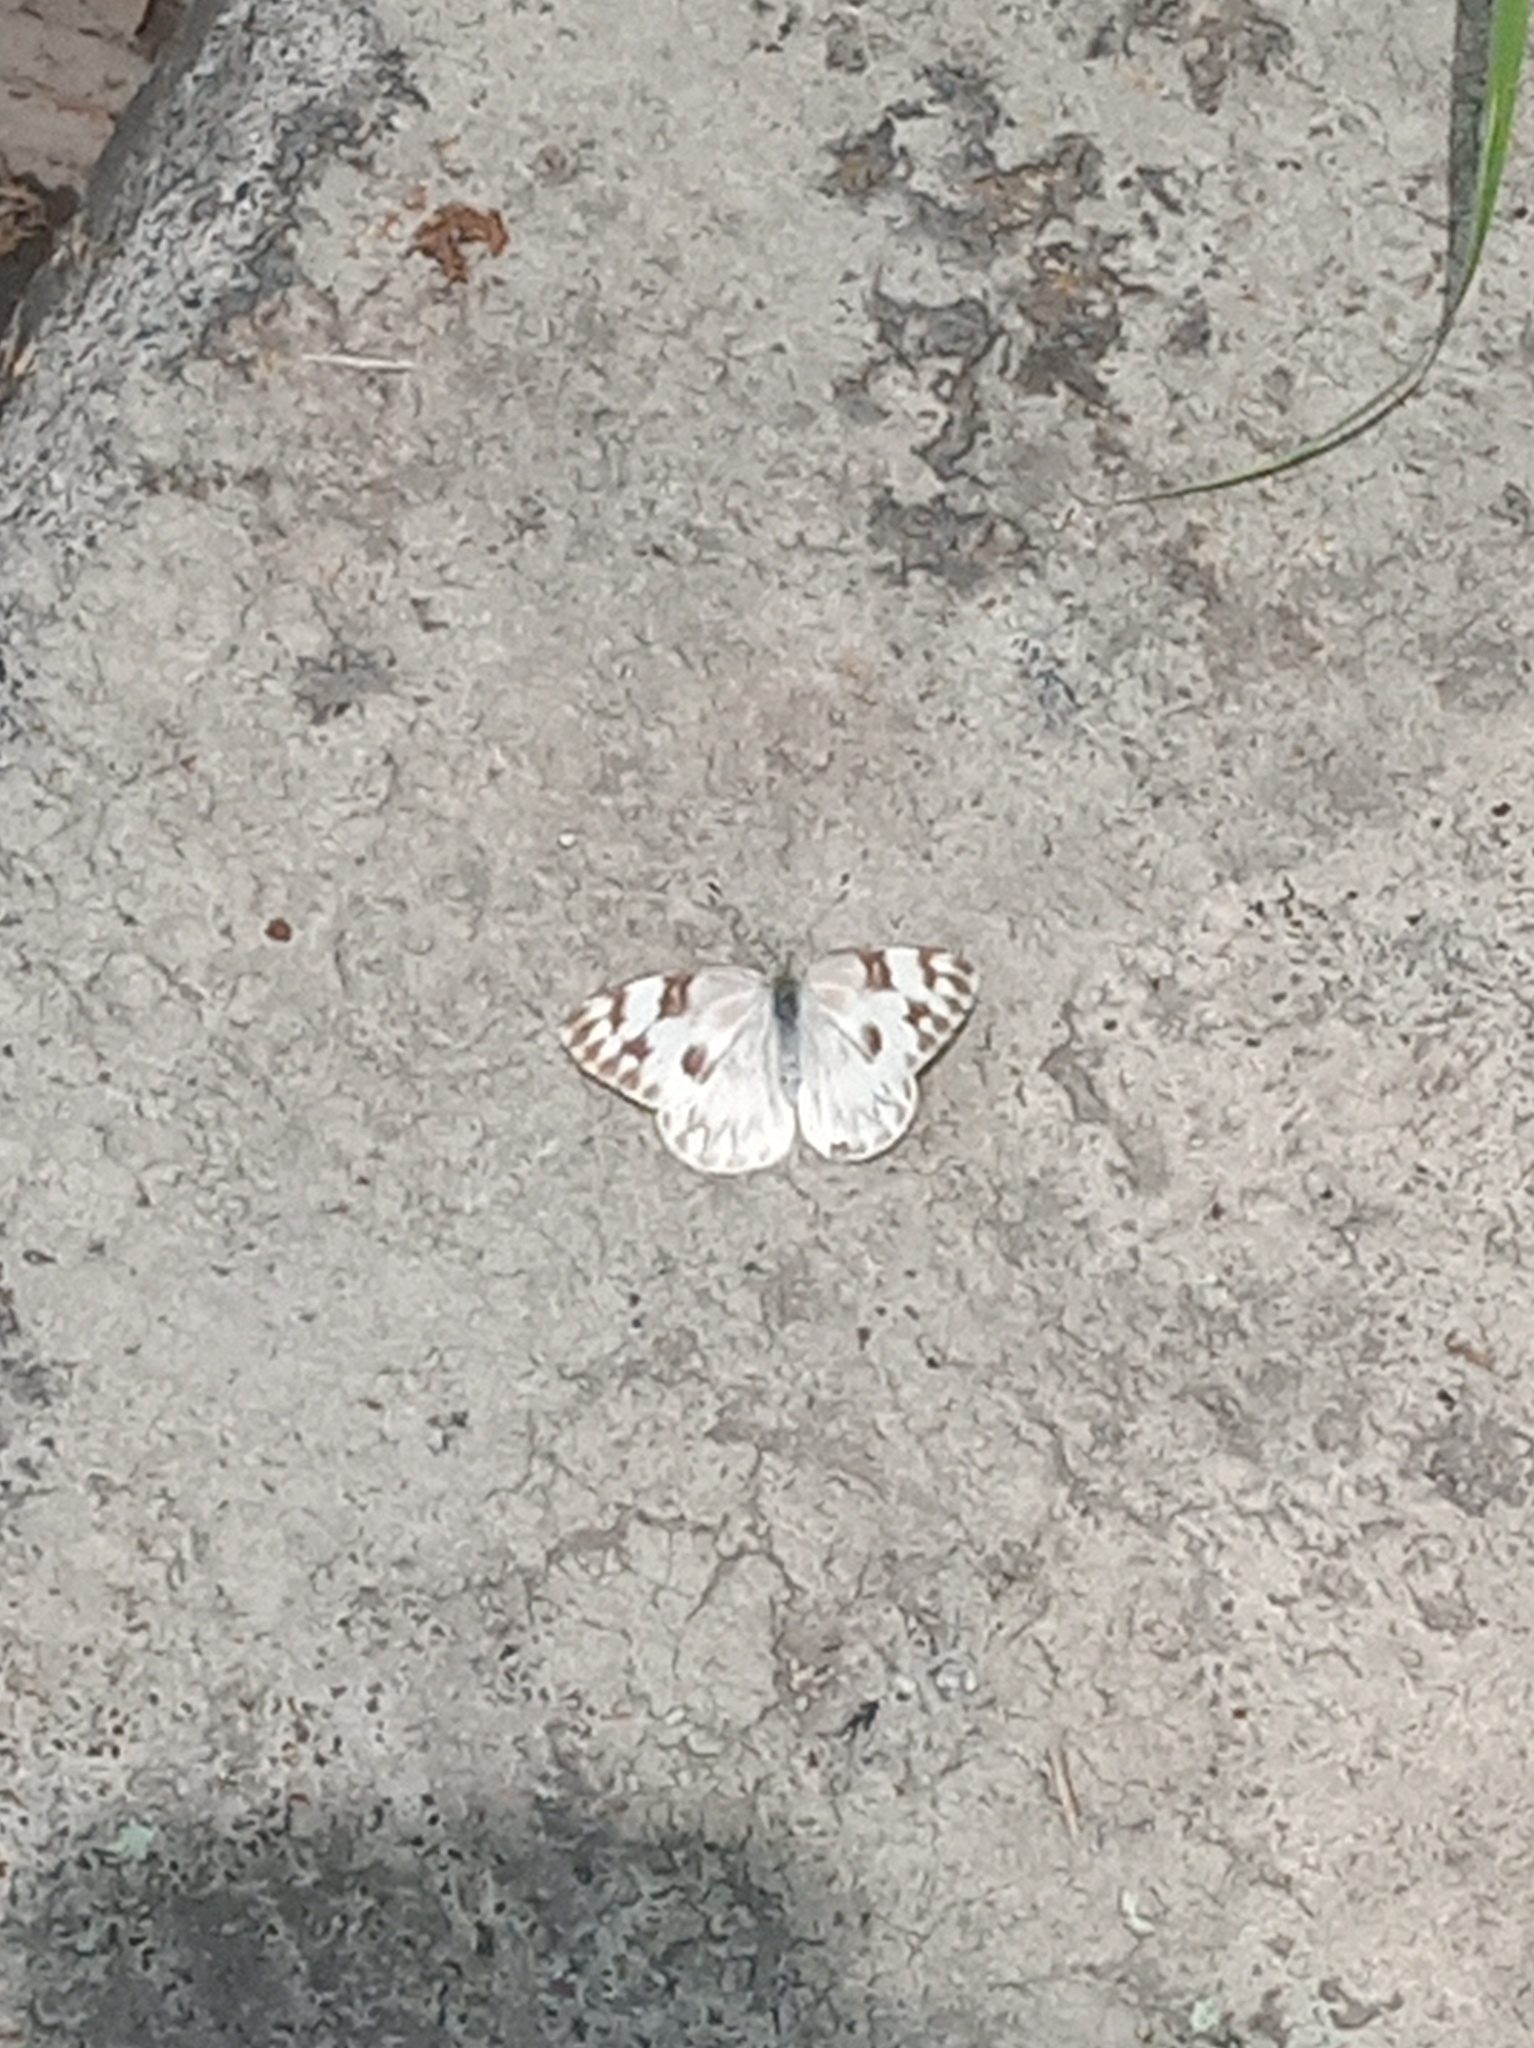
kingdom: Animalia
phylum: Arthropoda
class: Insecta
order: Lepidoptera
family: Pieridae
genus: Pontia
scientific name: Pontia protodice
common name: Checkered white
